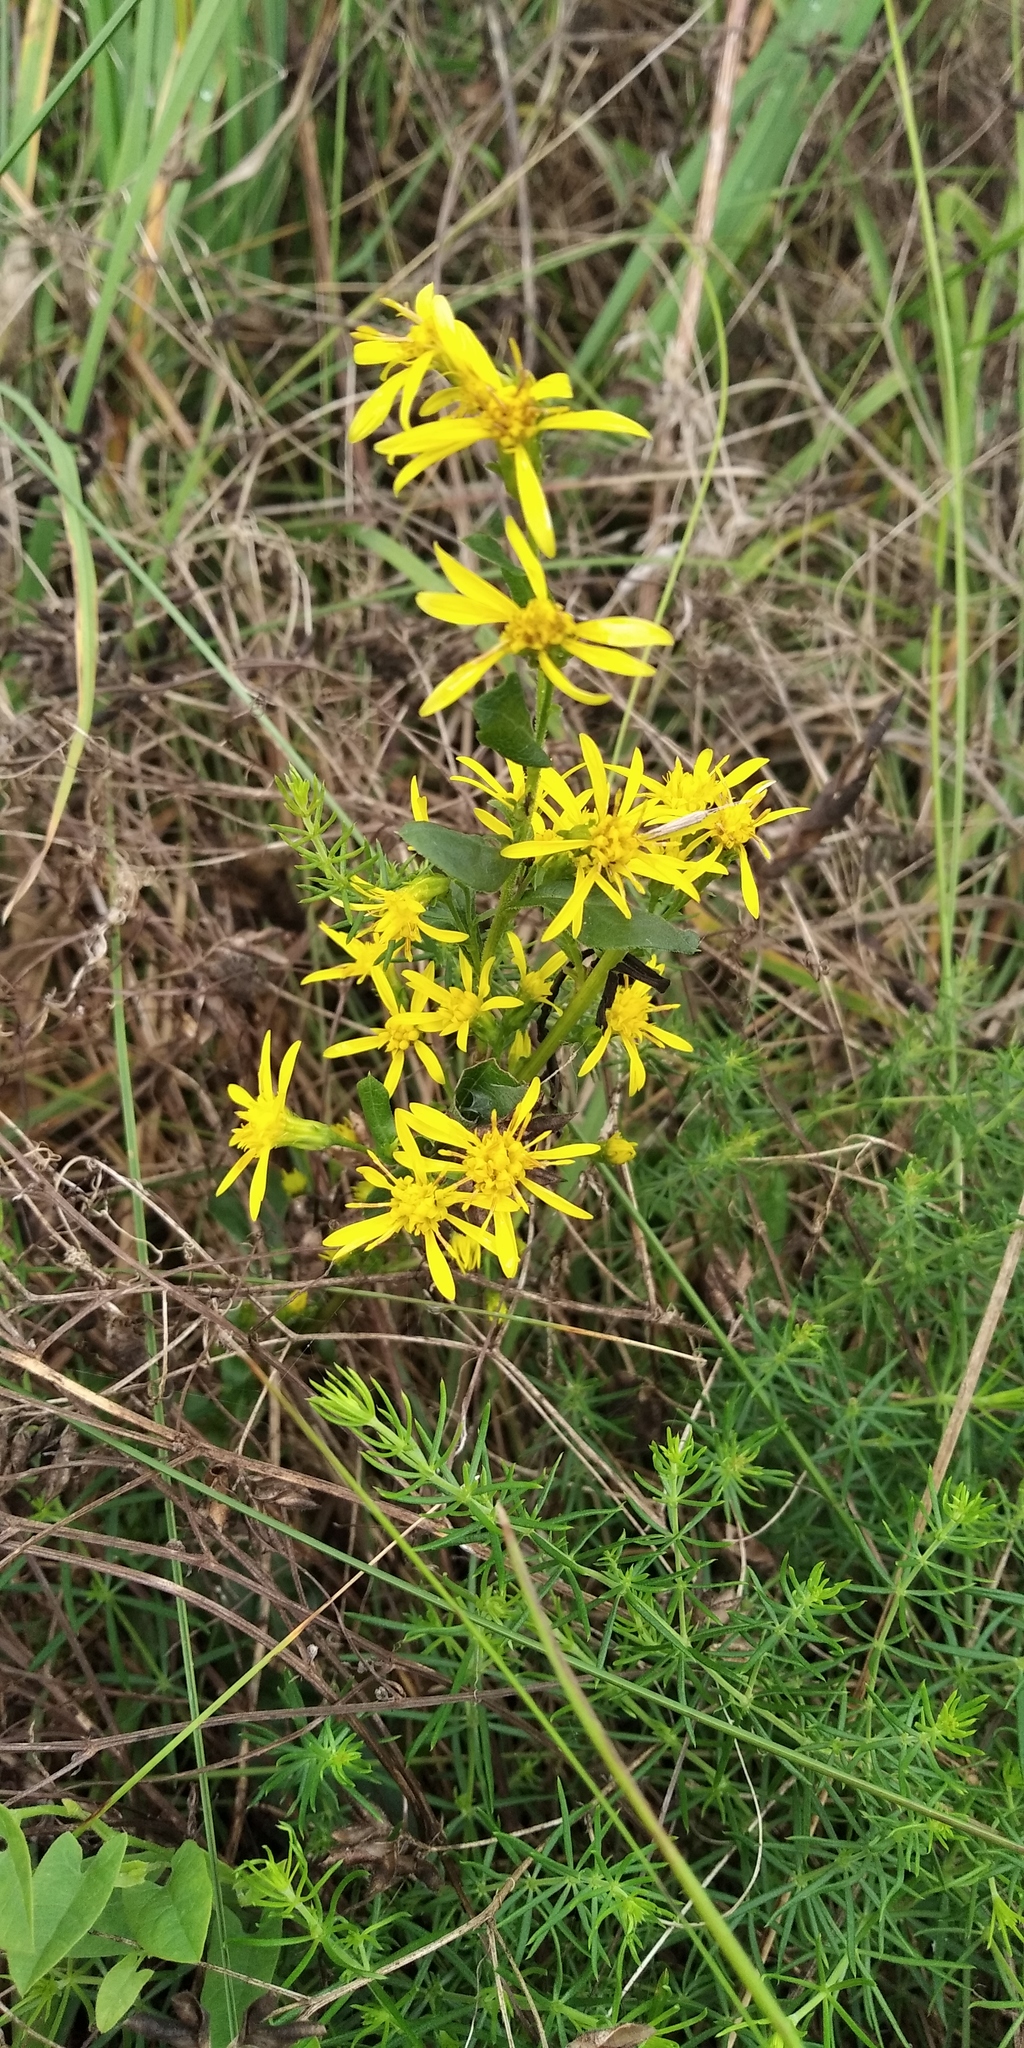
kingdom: Plantae
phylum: Tracheophyta
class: Magnoliopsida
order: Asterales
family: Asteraceae
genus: Solidago
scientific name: Solidago virgaurea
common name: Goldenrod
